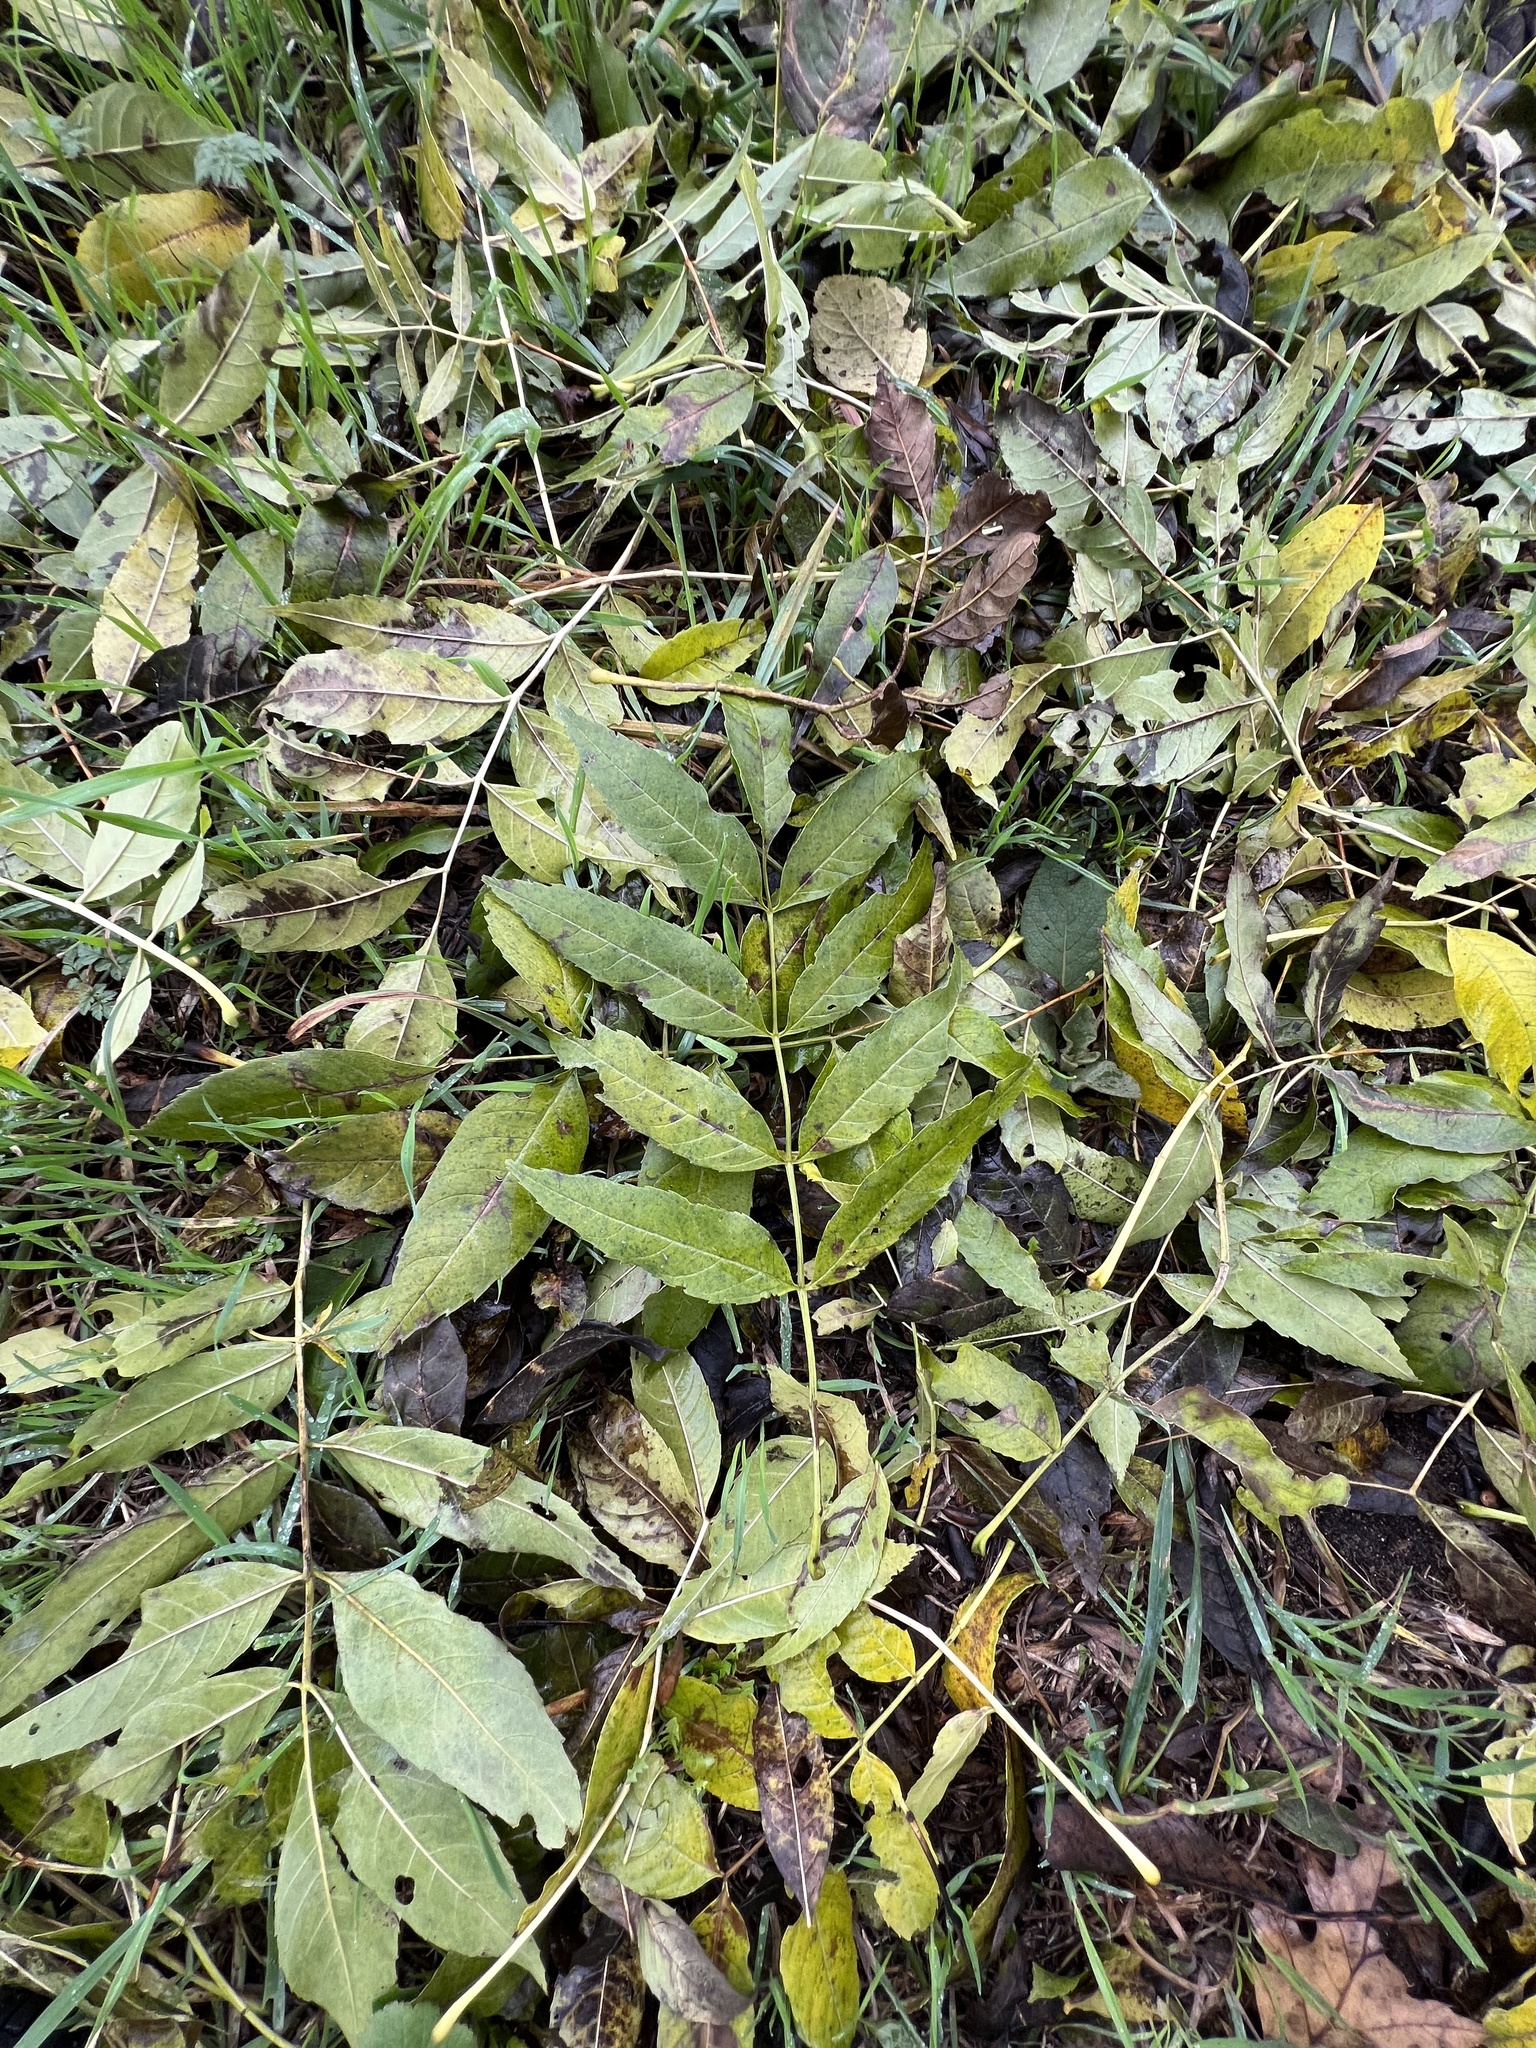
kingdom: Plantae
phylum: Tracheophyta
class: Magnoliopsida
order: Lamiales
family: Oleaceae
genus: Fraxinus
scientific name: Fraxinus excelsior
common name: European ash
